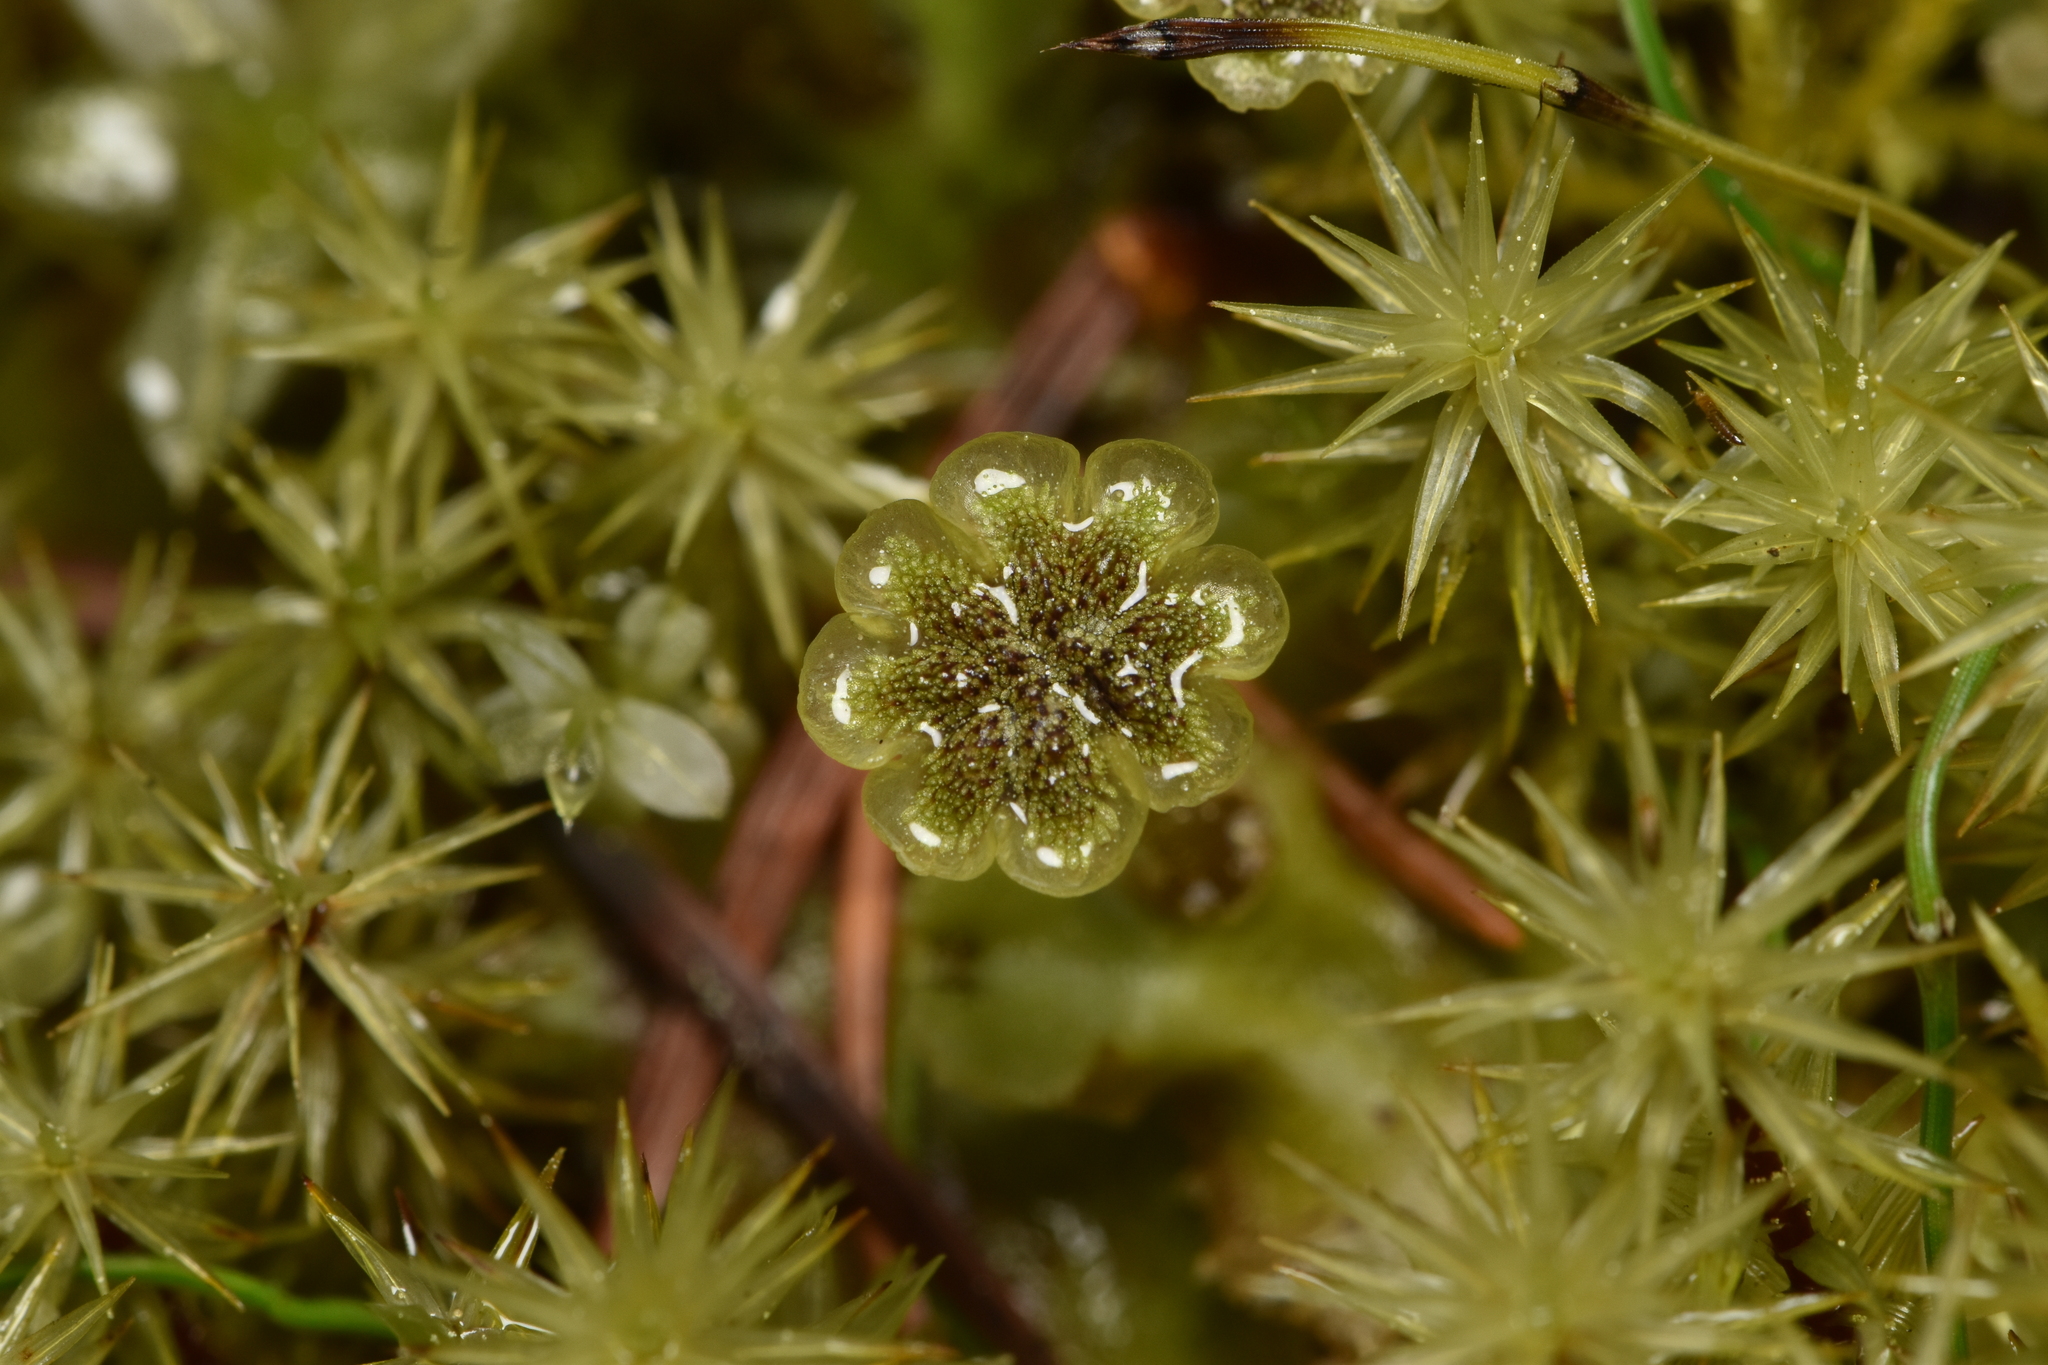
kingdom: Plantae
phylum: Marchantiophyta
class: Marchantiopsida
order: Marchantiales
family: Marchantiaceae
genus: Marchantia
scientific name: Marchantia polymorpha
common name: Common liverwort
